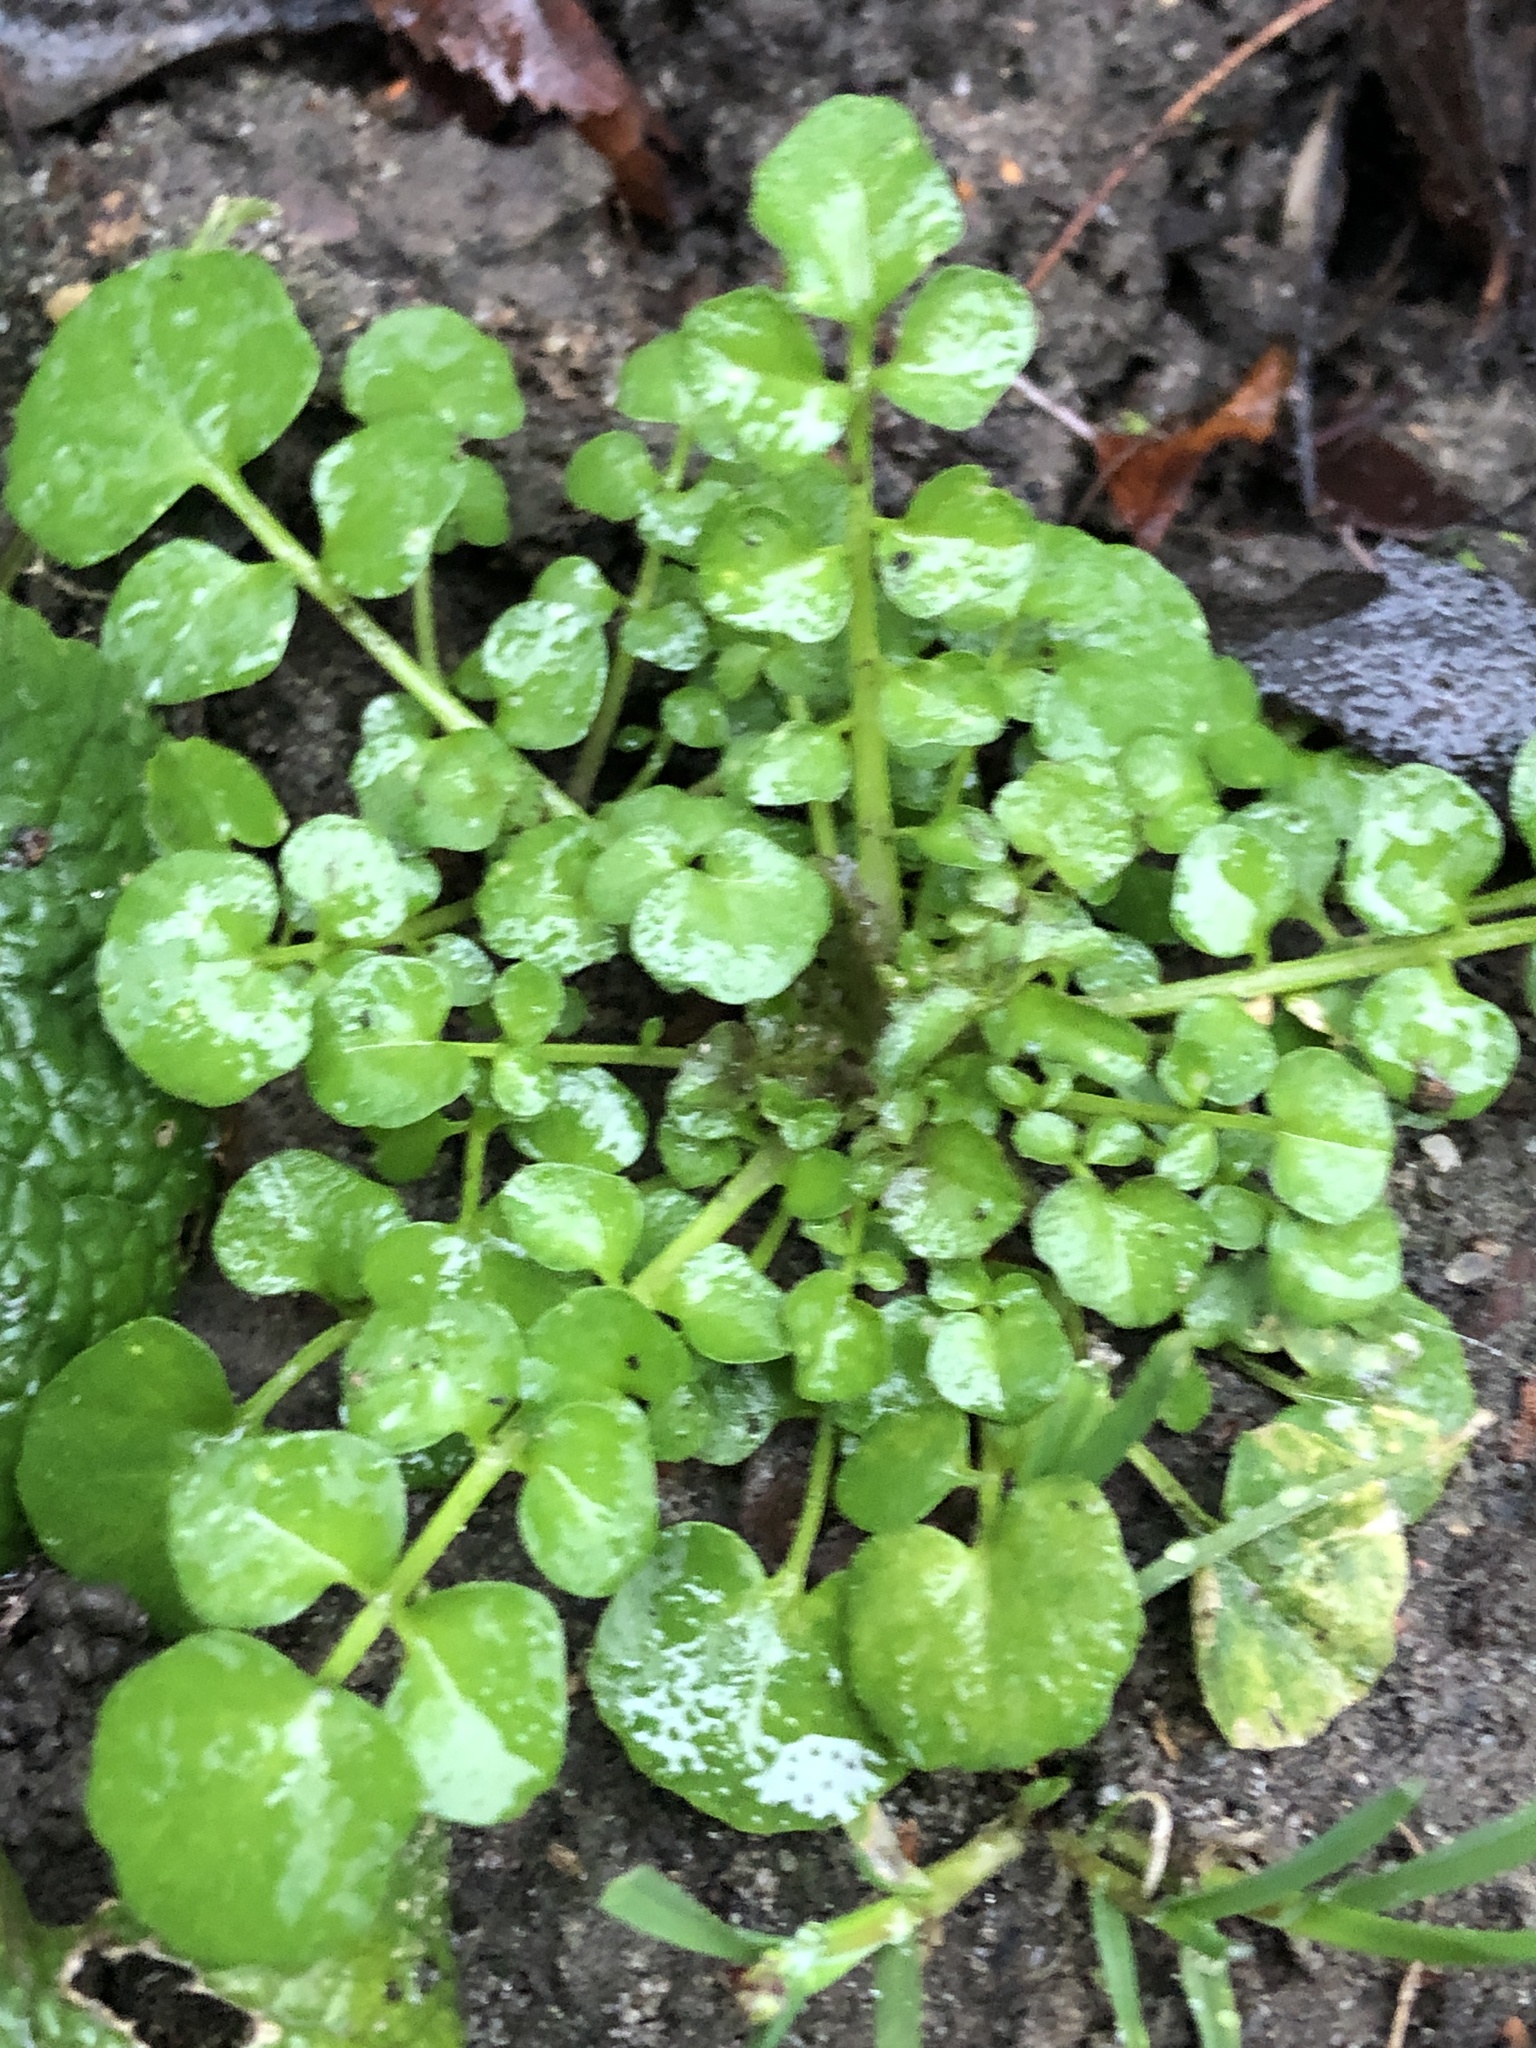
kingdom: Plantae
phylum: Tracheophyta
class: Magnoliopsida
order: Brassicales
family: Brassicaceae
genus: Cardamine
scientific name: Cardamine hirsuta
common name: Hairy bittercress
